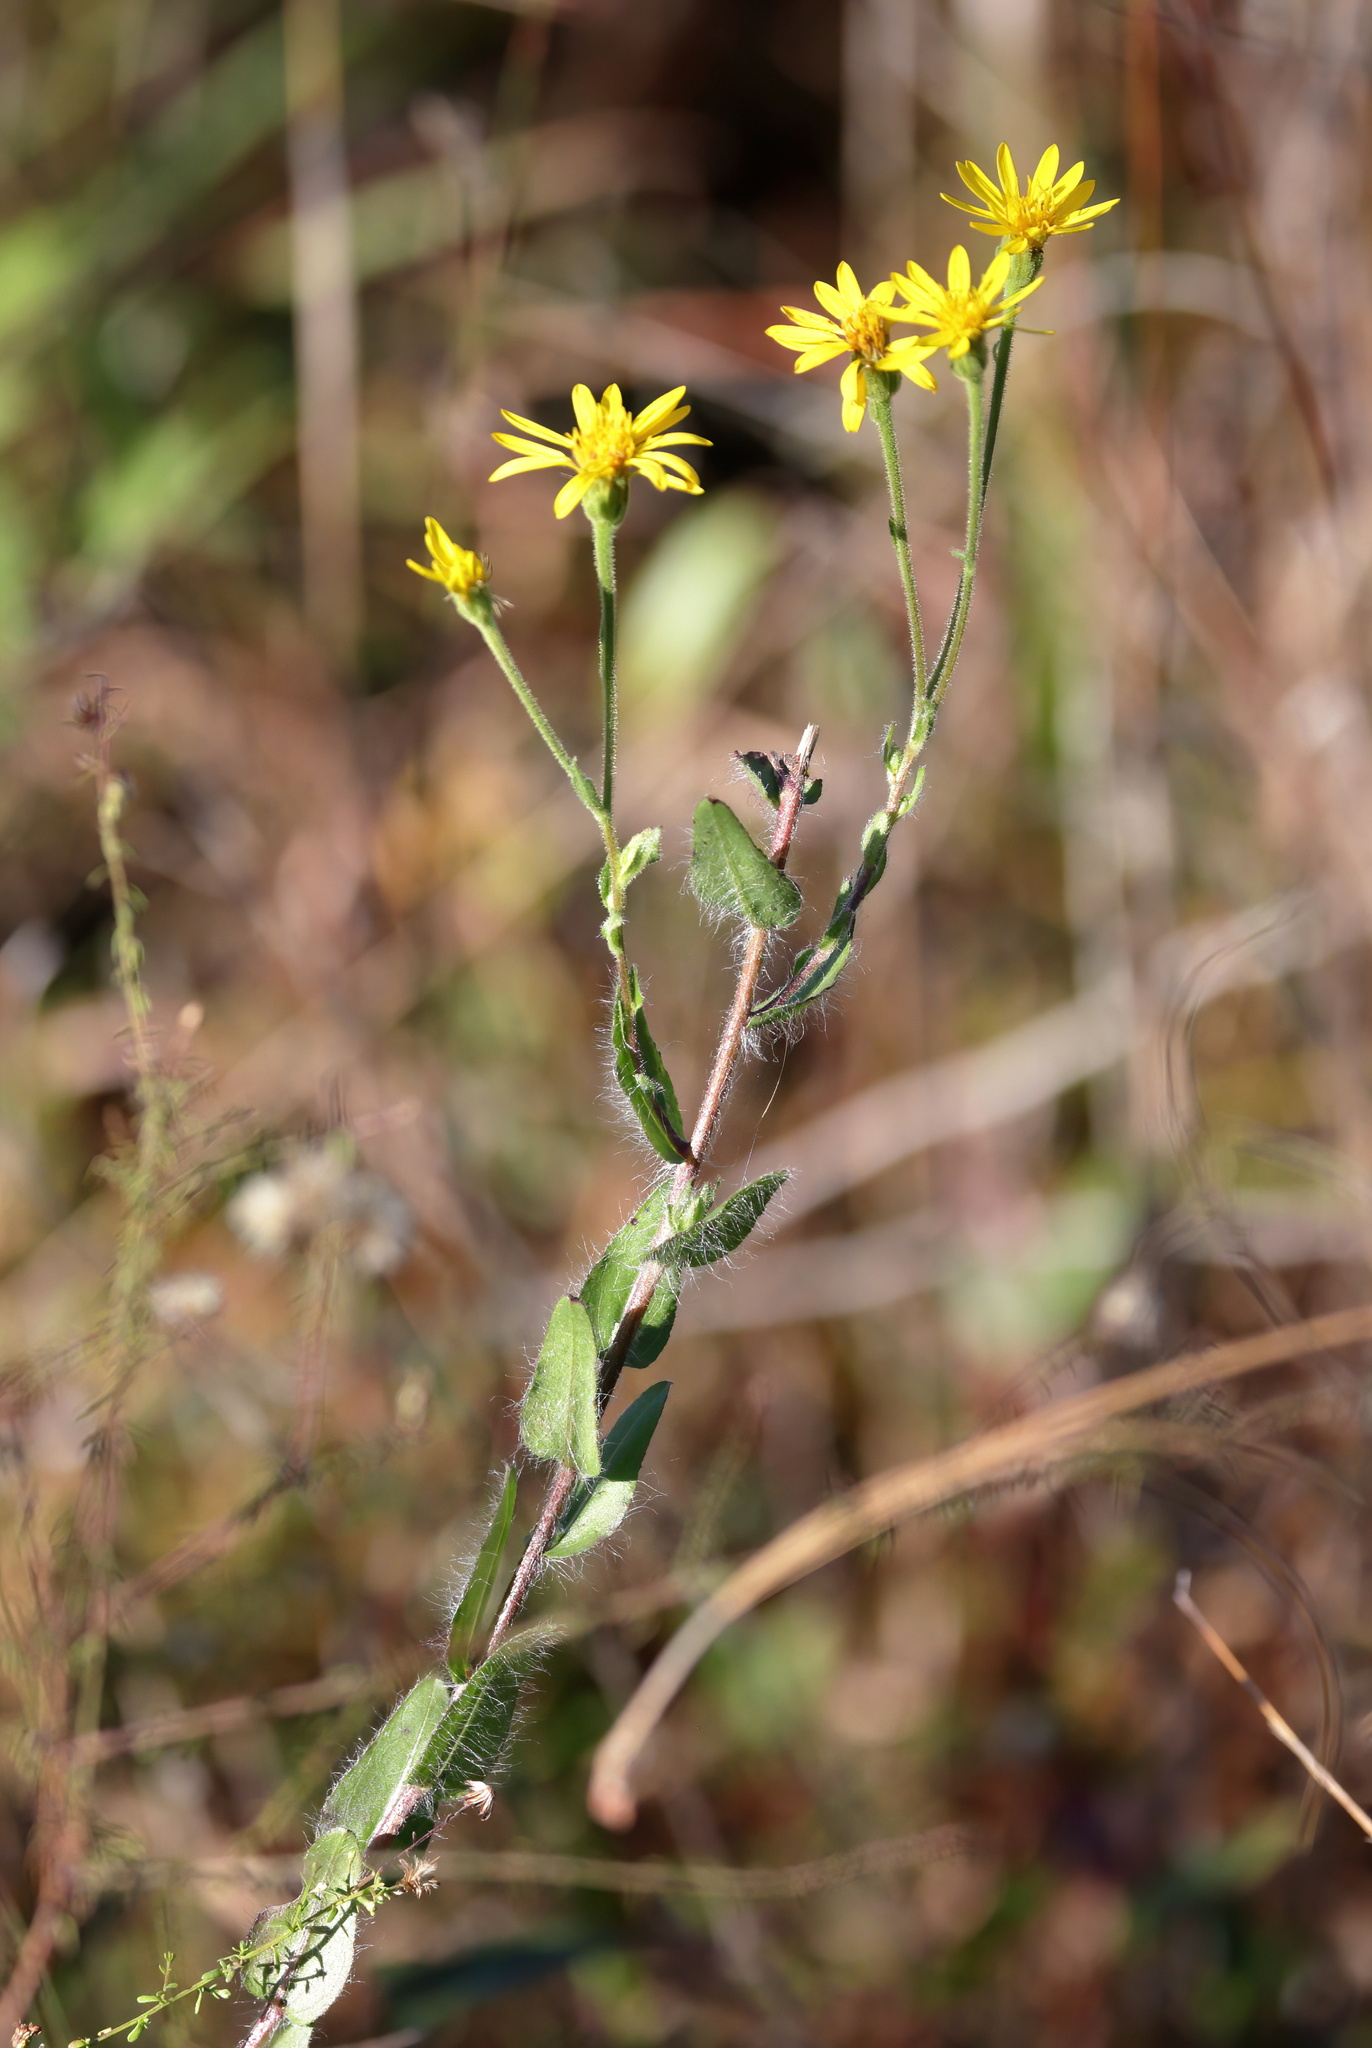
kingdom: Plantae
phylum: Tracheophyta
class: Magnoliopsida
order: Asterales
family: Asteraceae
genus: Chrysopsis
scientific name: Chrysopsis mariana
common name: Maryland golden-aster
